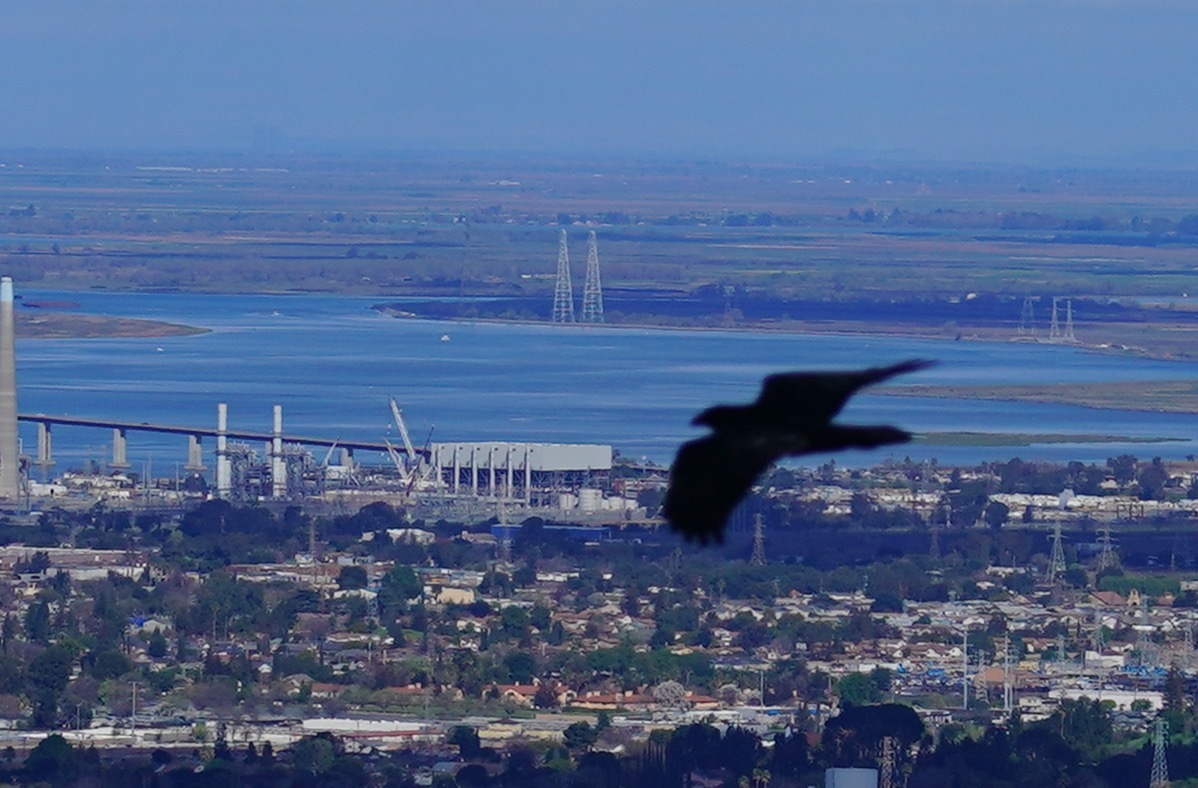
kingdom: Animalia
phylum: Chordata
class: Aves
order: Passeriformes
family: Corvidae
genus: Corvus
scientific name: Corvus corax
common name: Common raven
